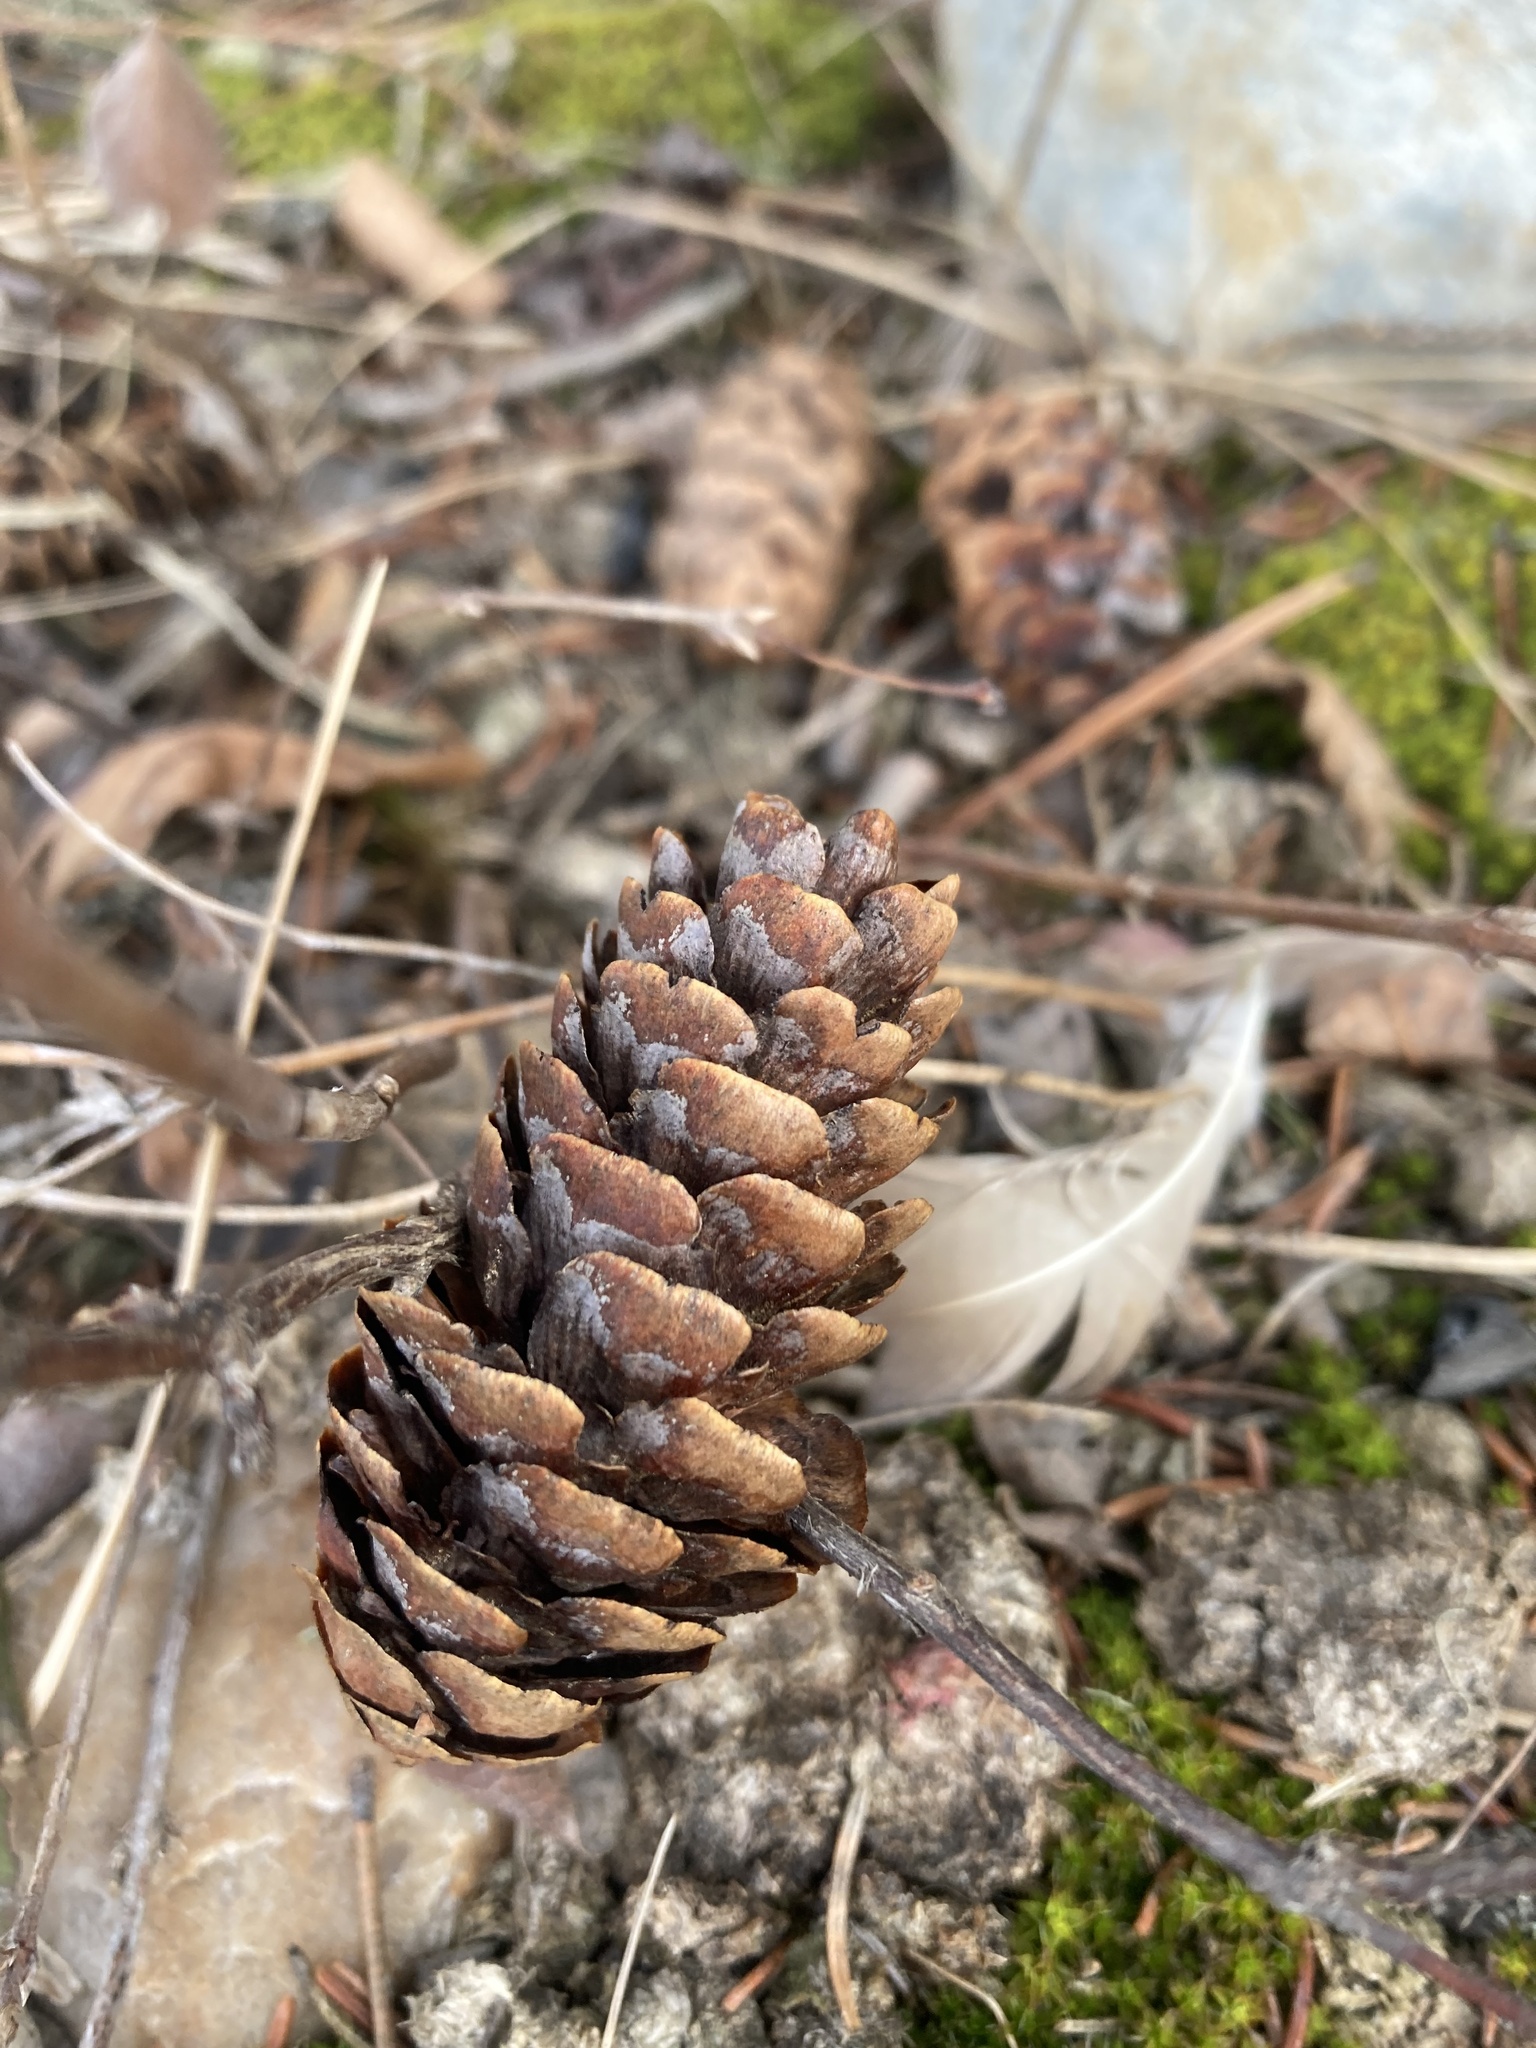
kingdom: Plantae
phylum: Tracheophyta
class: Pinopsida
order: Pinales
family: Pinaceae
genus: Picea
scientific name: Picea glauca
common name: White spruce
